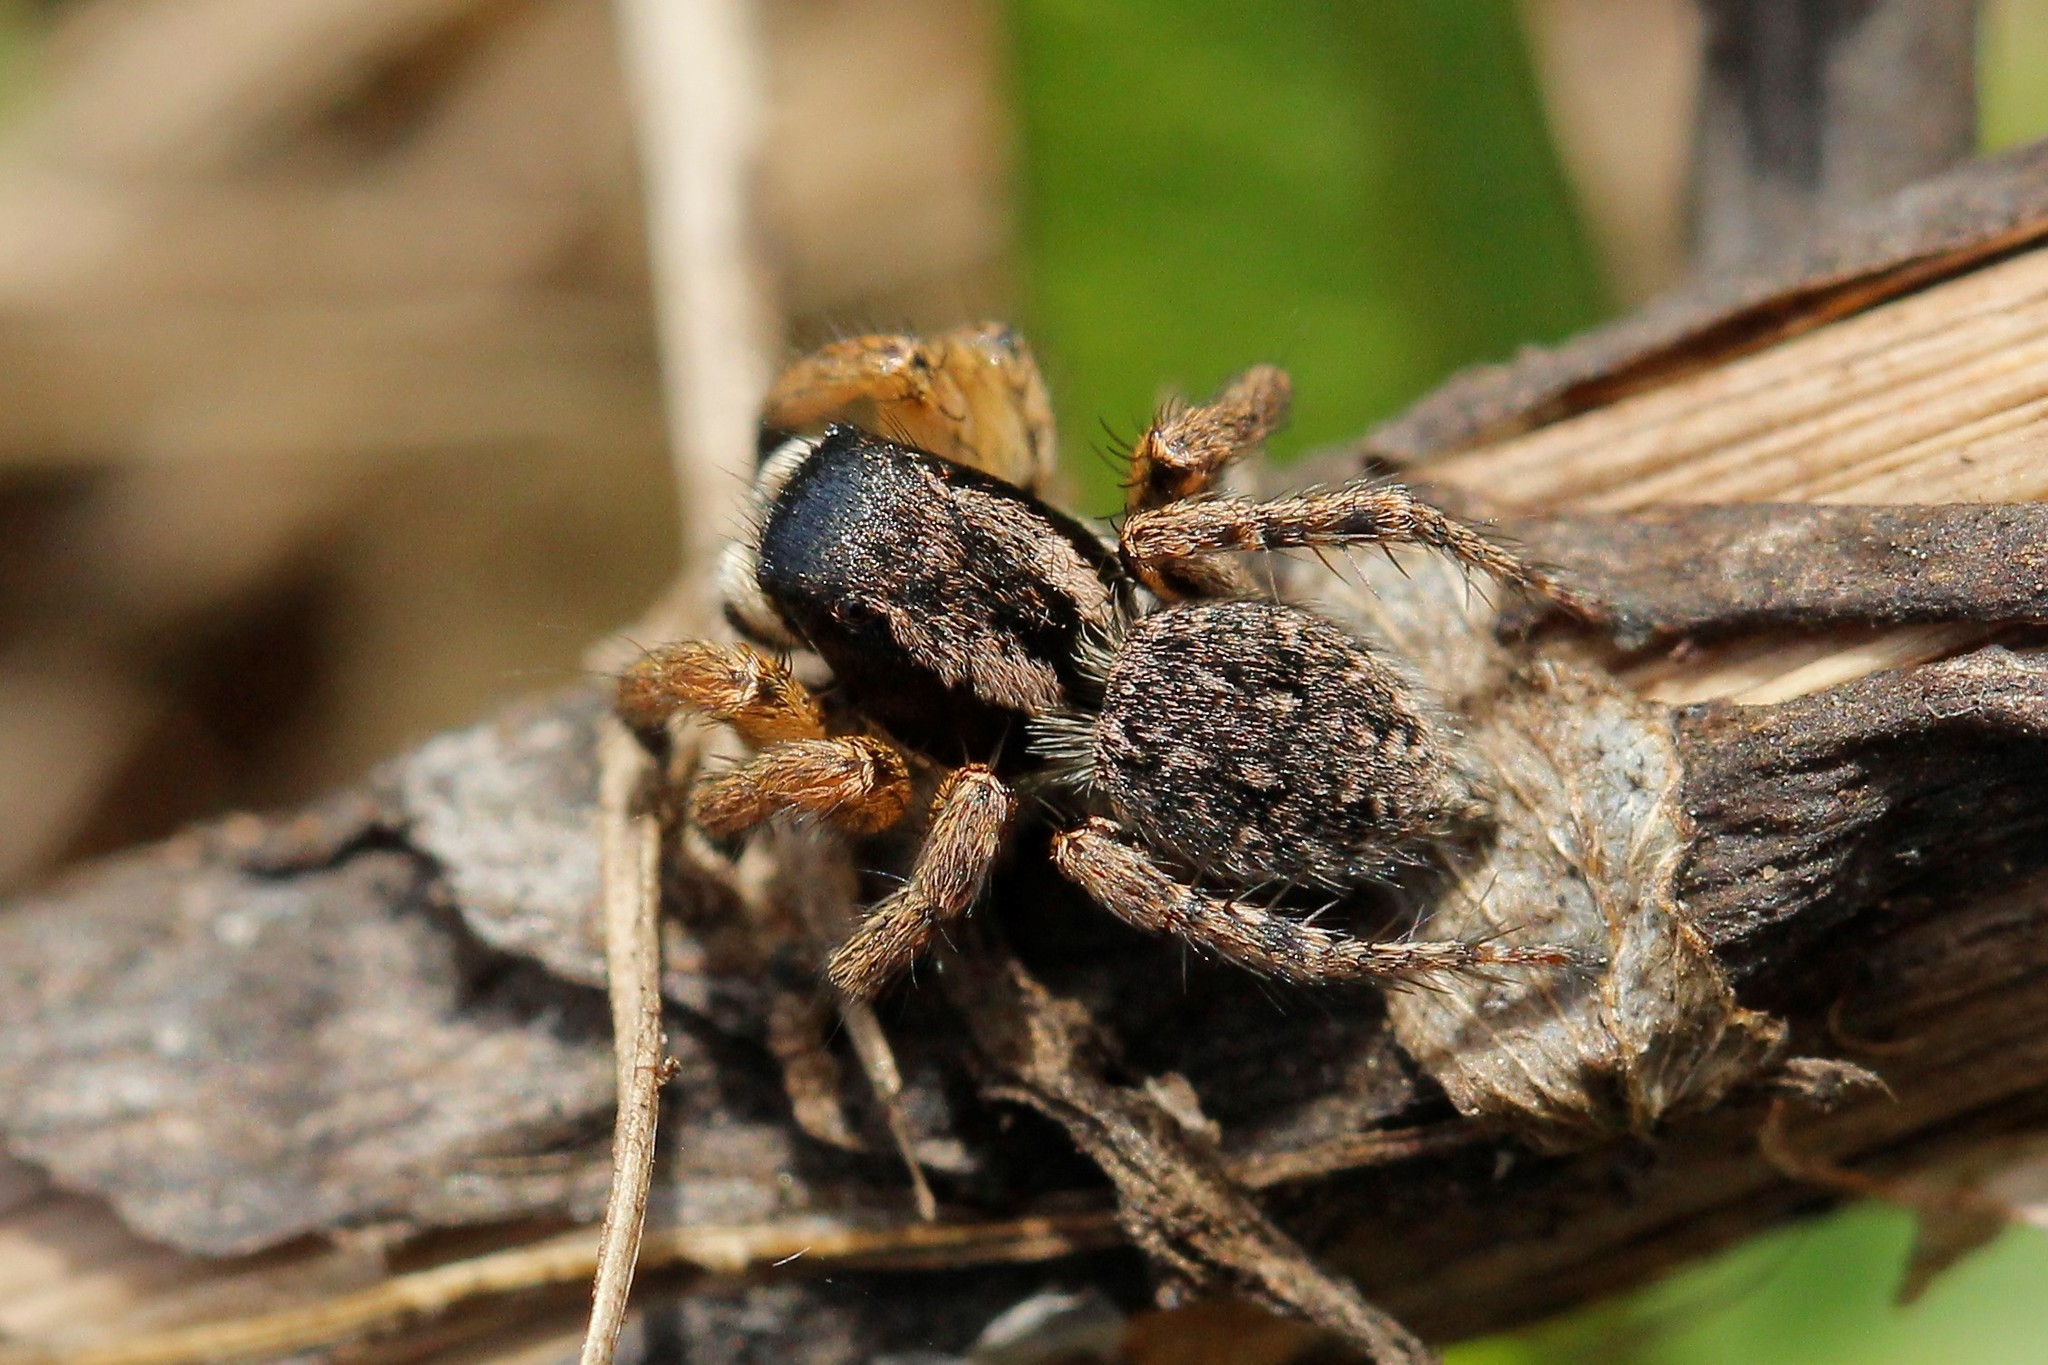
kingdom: Animalia
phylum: Arthropoda
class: Arachnida
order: Araneae
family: Salticidae
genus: Asianellus
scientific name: Asianellus festivus
